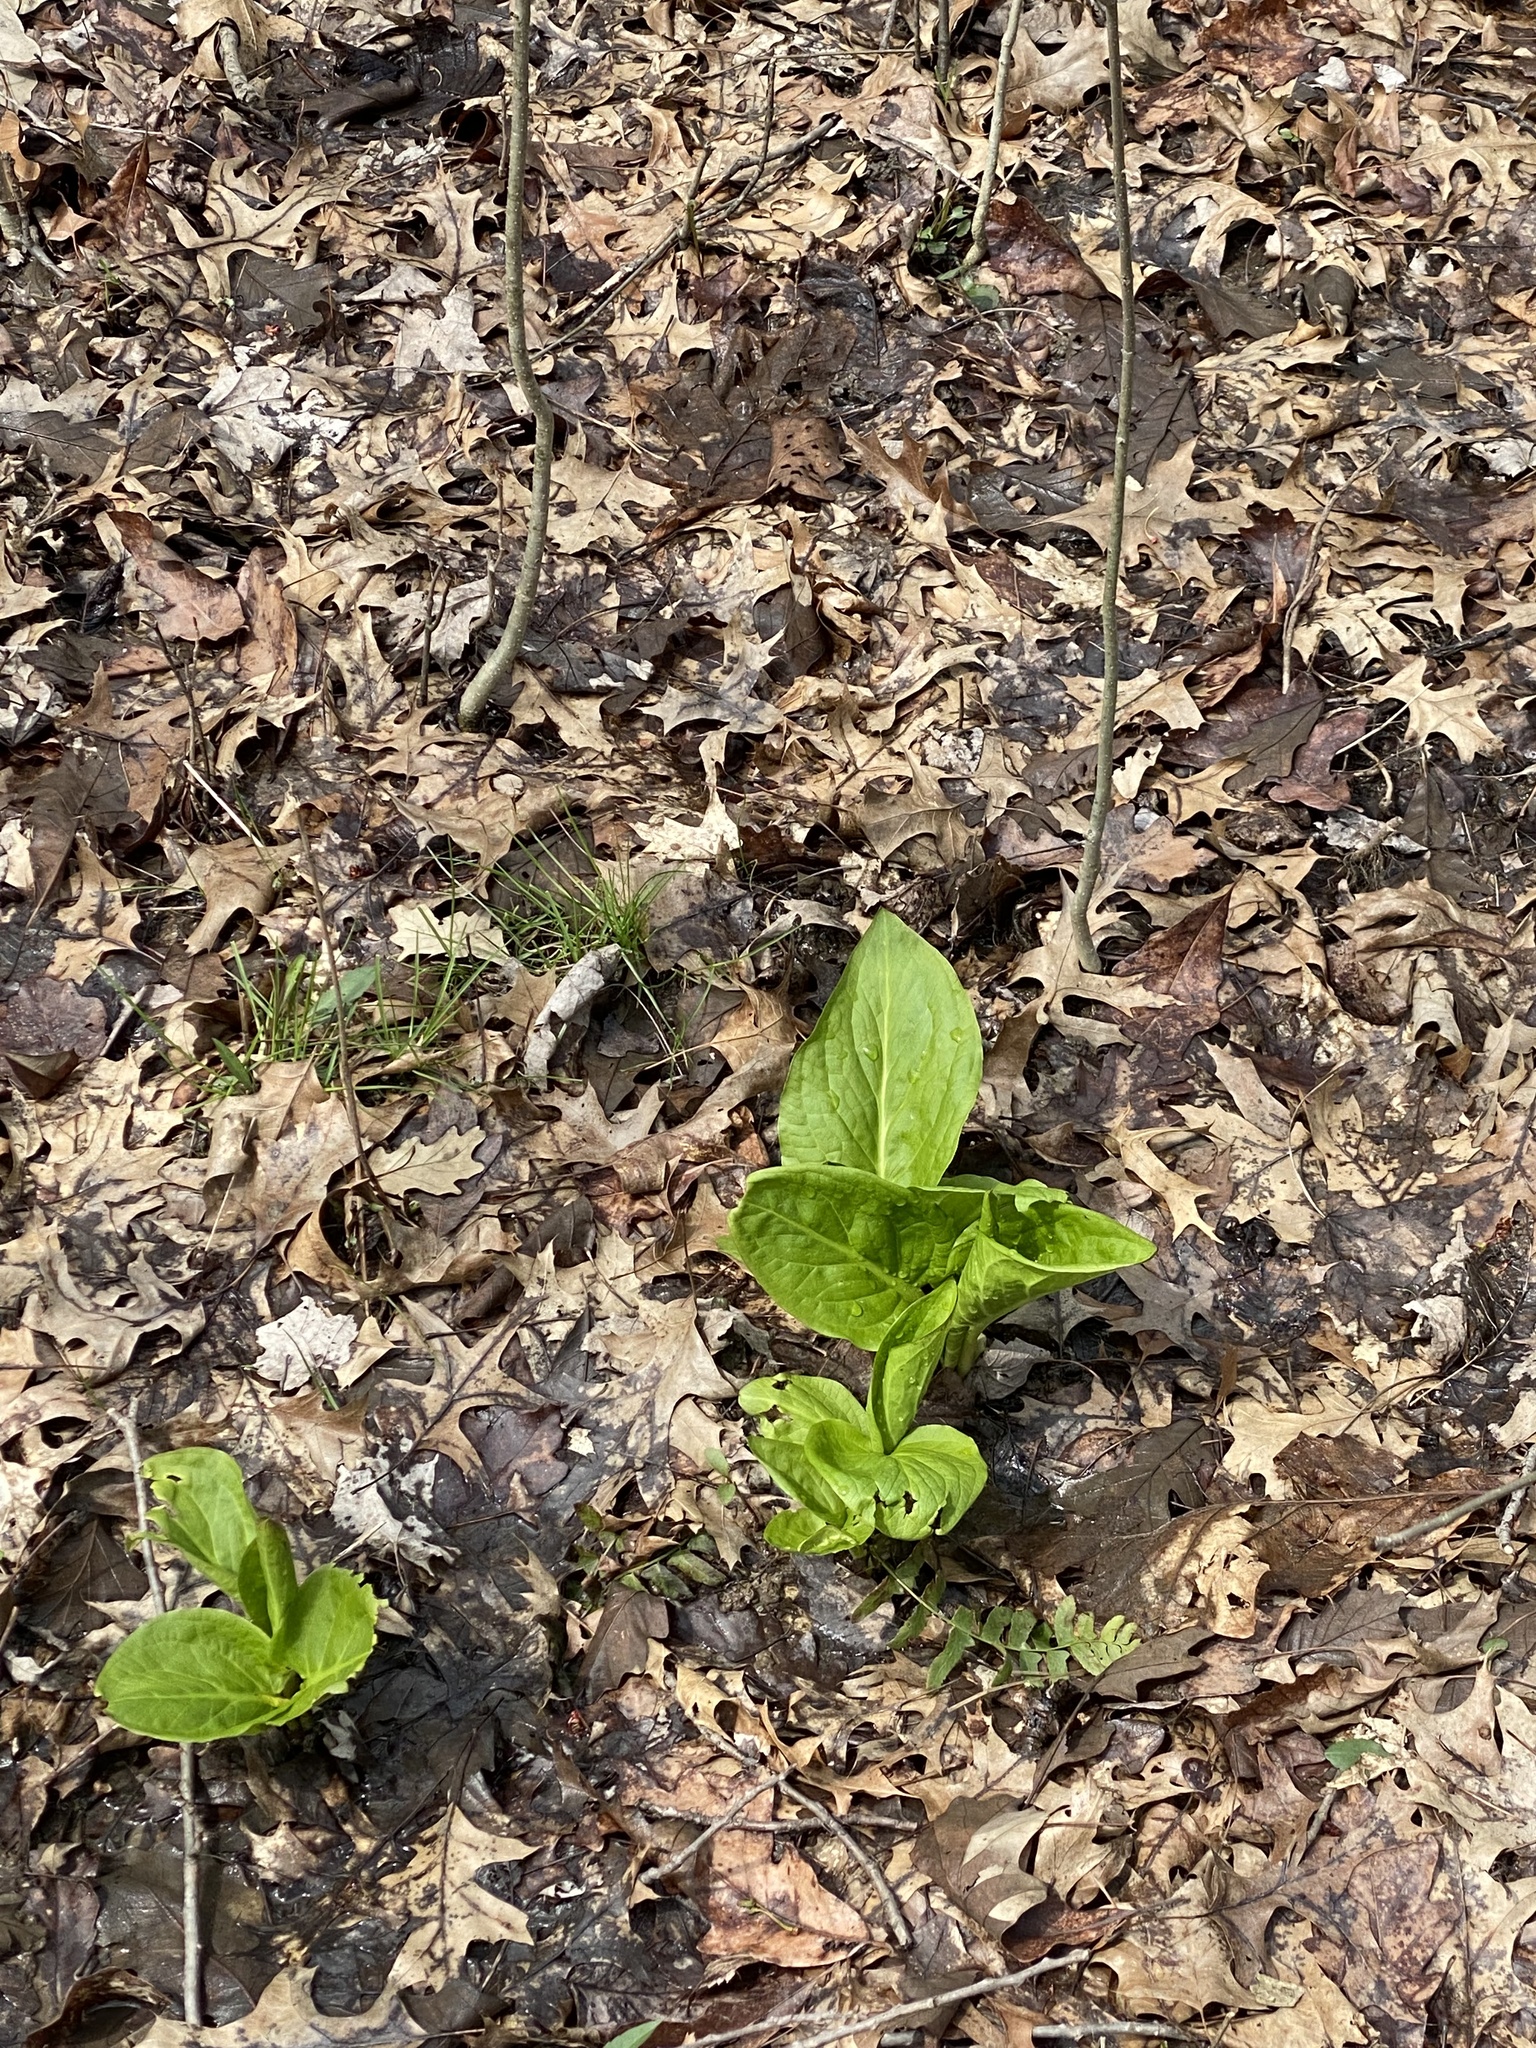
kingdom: Plantae
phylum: Tracheophyta
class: Liliopsida
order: Alismatales
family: Araceae
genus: Symplocarpus
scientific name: Symplocarpus foetidus
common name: Eastern skunk cabbage
